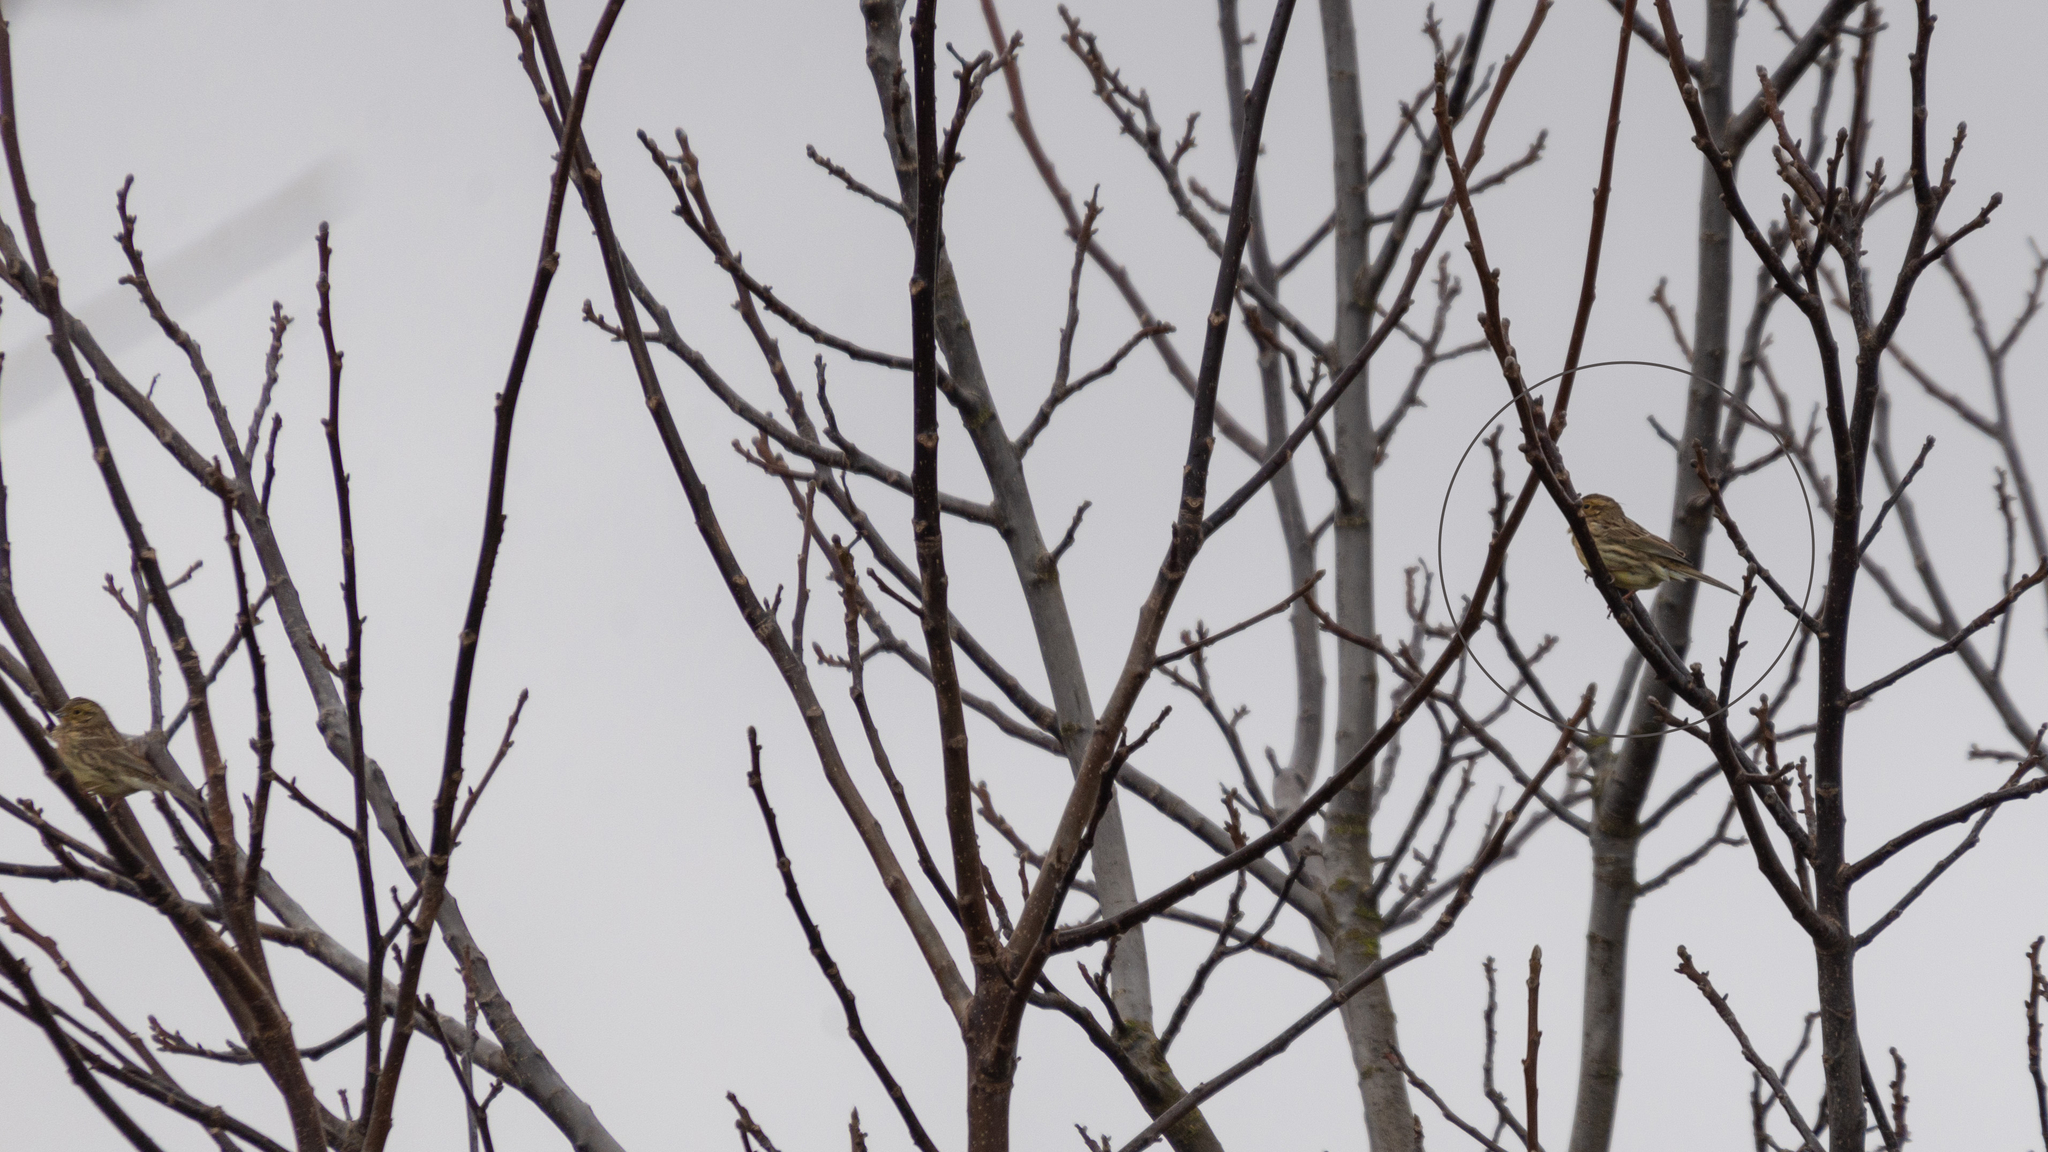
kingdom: Animalia
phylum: Chordata
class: Aves
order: Passeriformes
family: Emberizidae
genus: Emberiza
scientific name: Emberiza cirlus
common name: Cirl bunting
